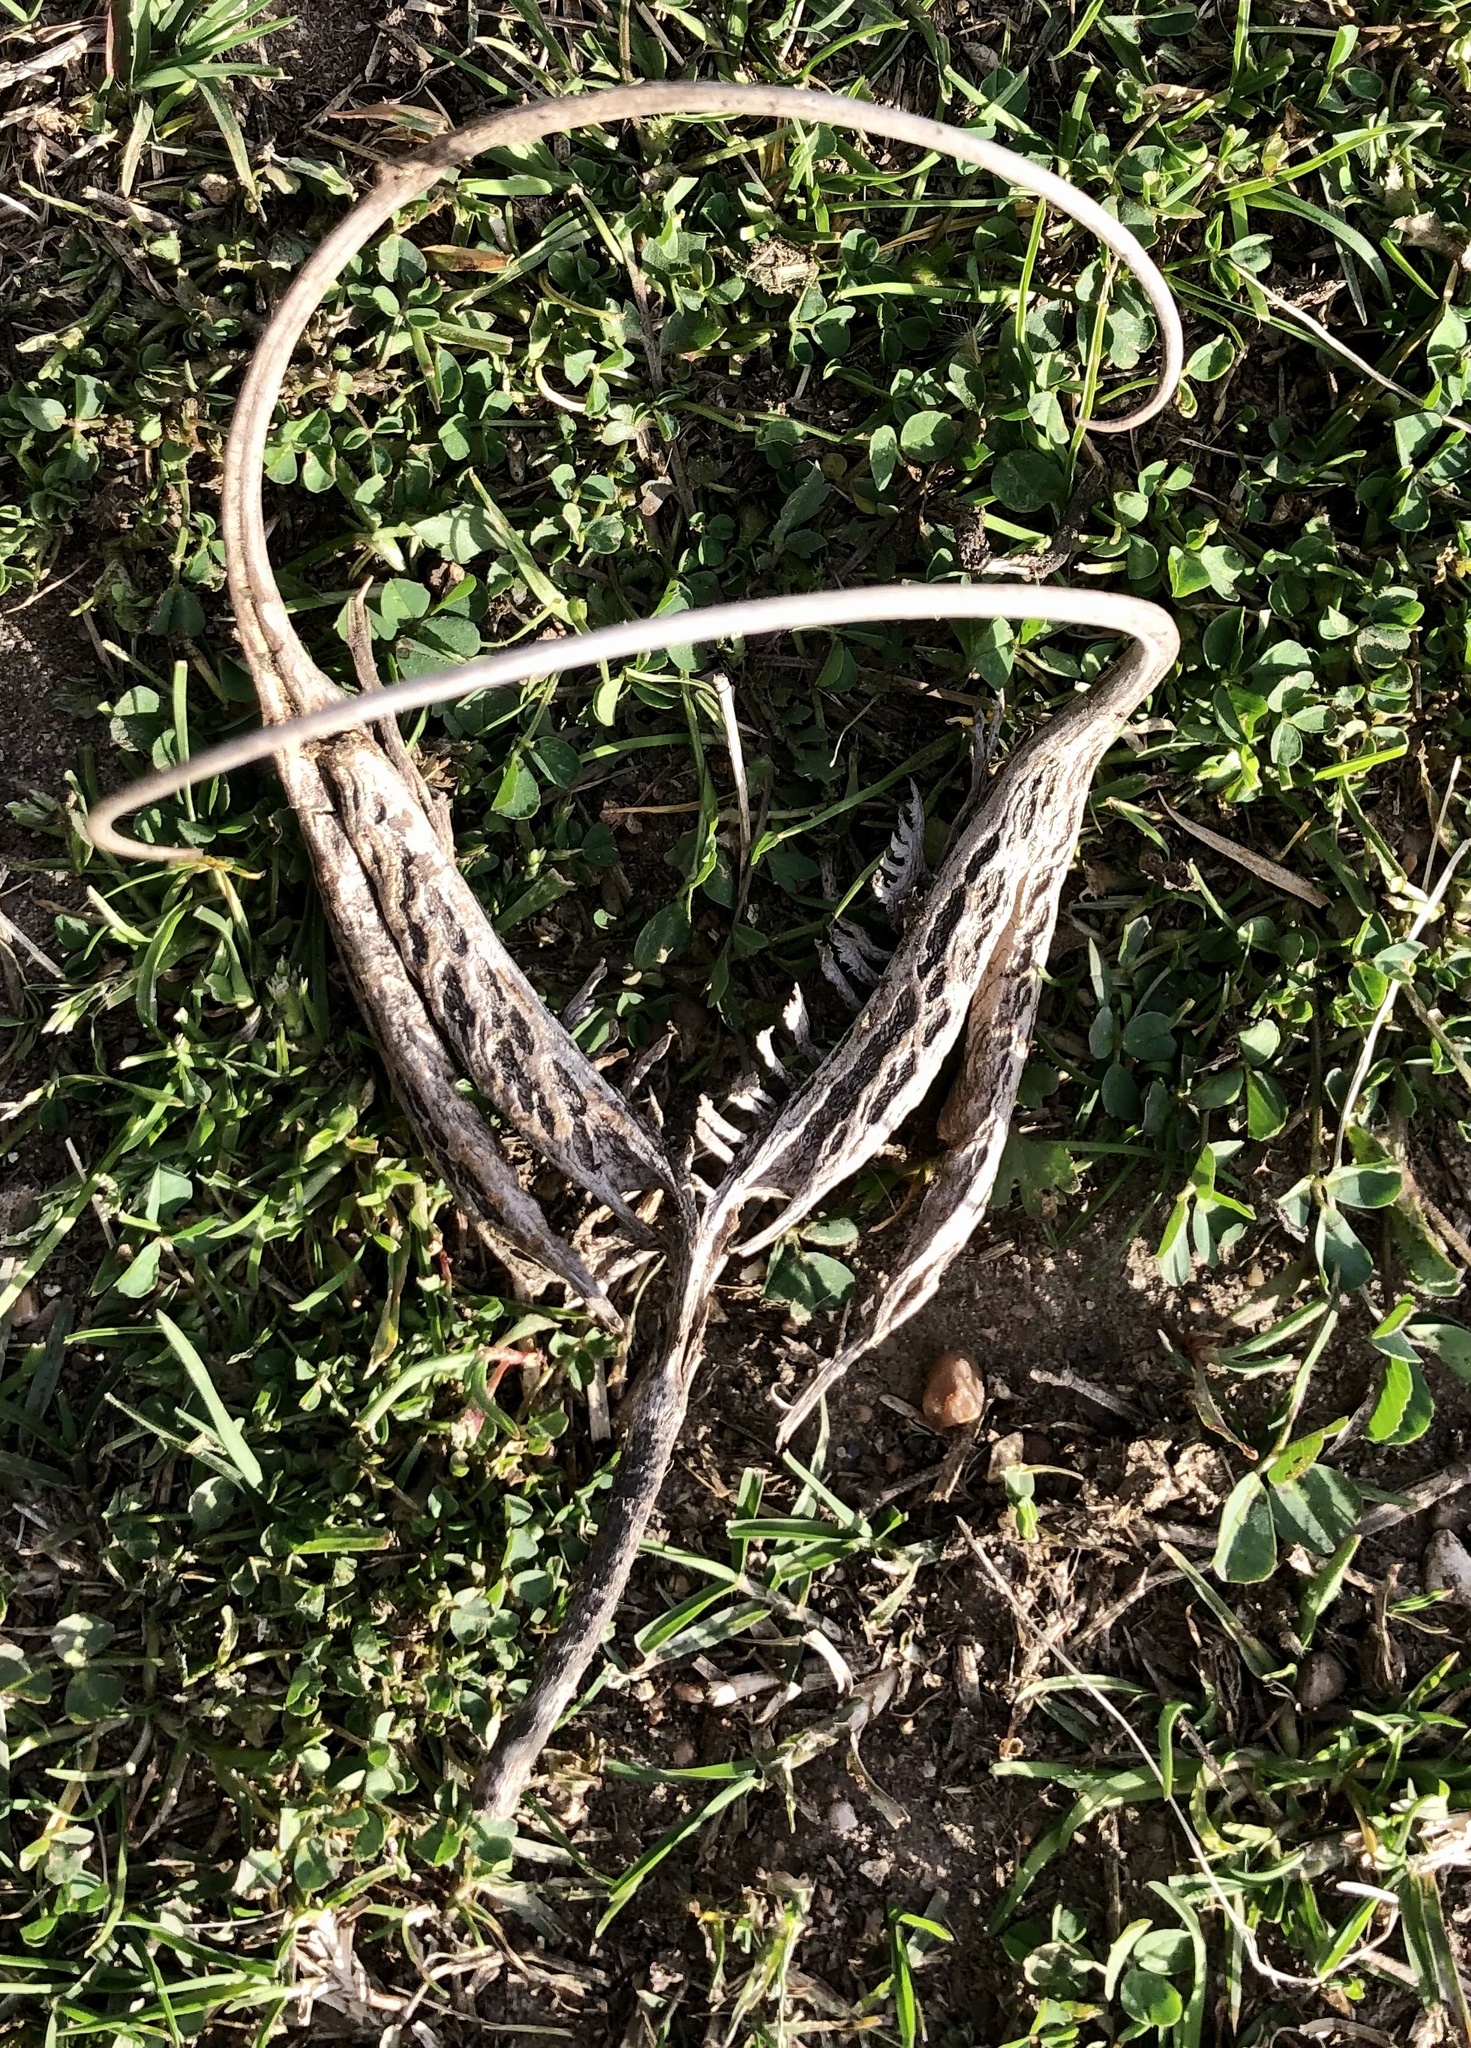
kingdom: Plantae
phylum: Tracheophyta
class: Magnoliopsida
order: Lamiales
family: Martyniaceae
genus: Proboscidea
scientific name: Proboscidea louisianica
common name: Elephant tusks
